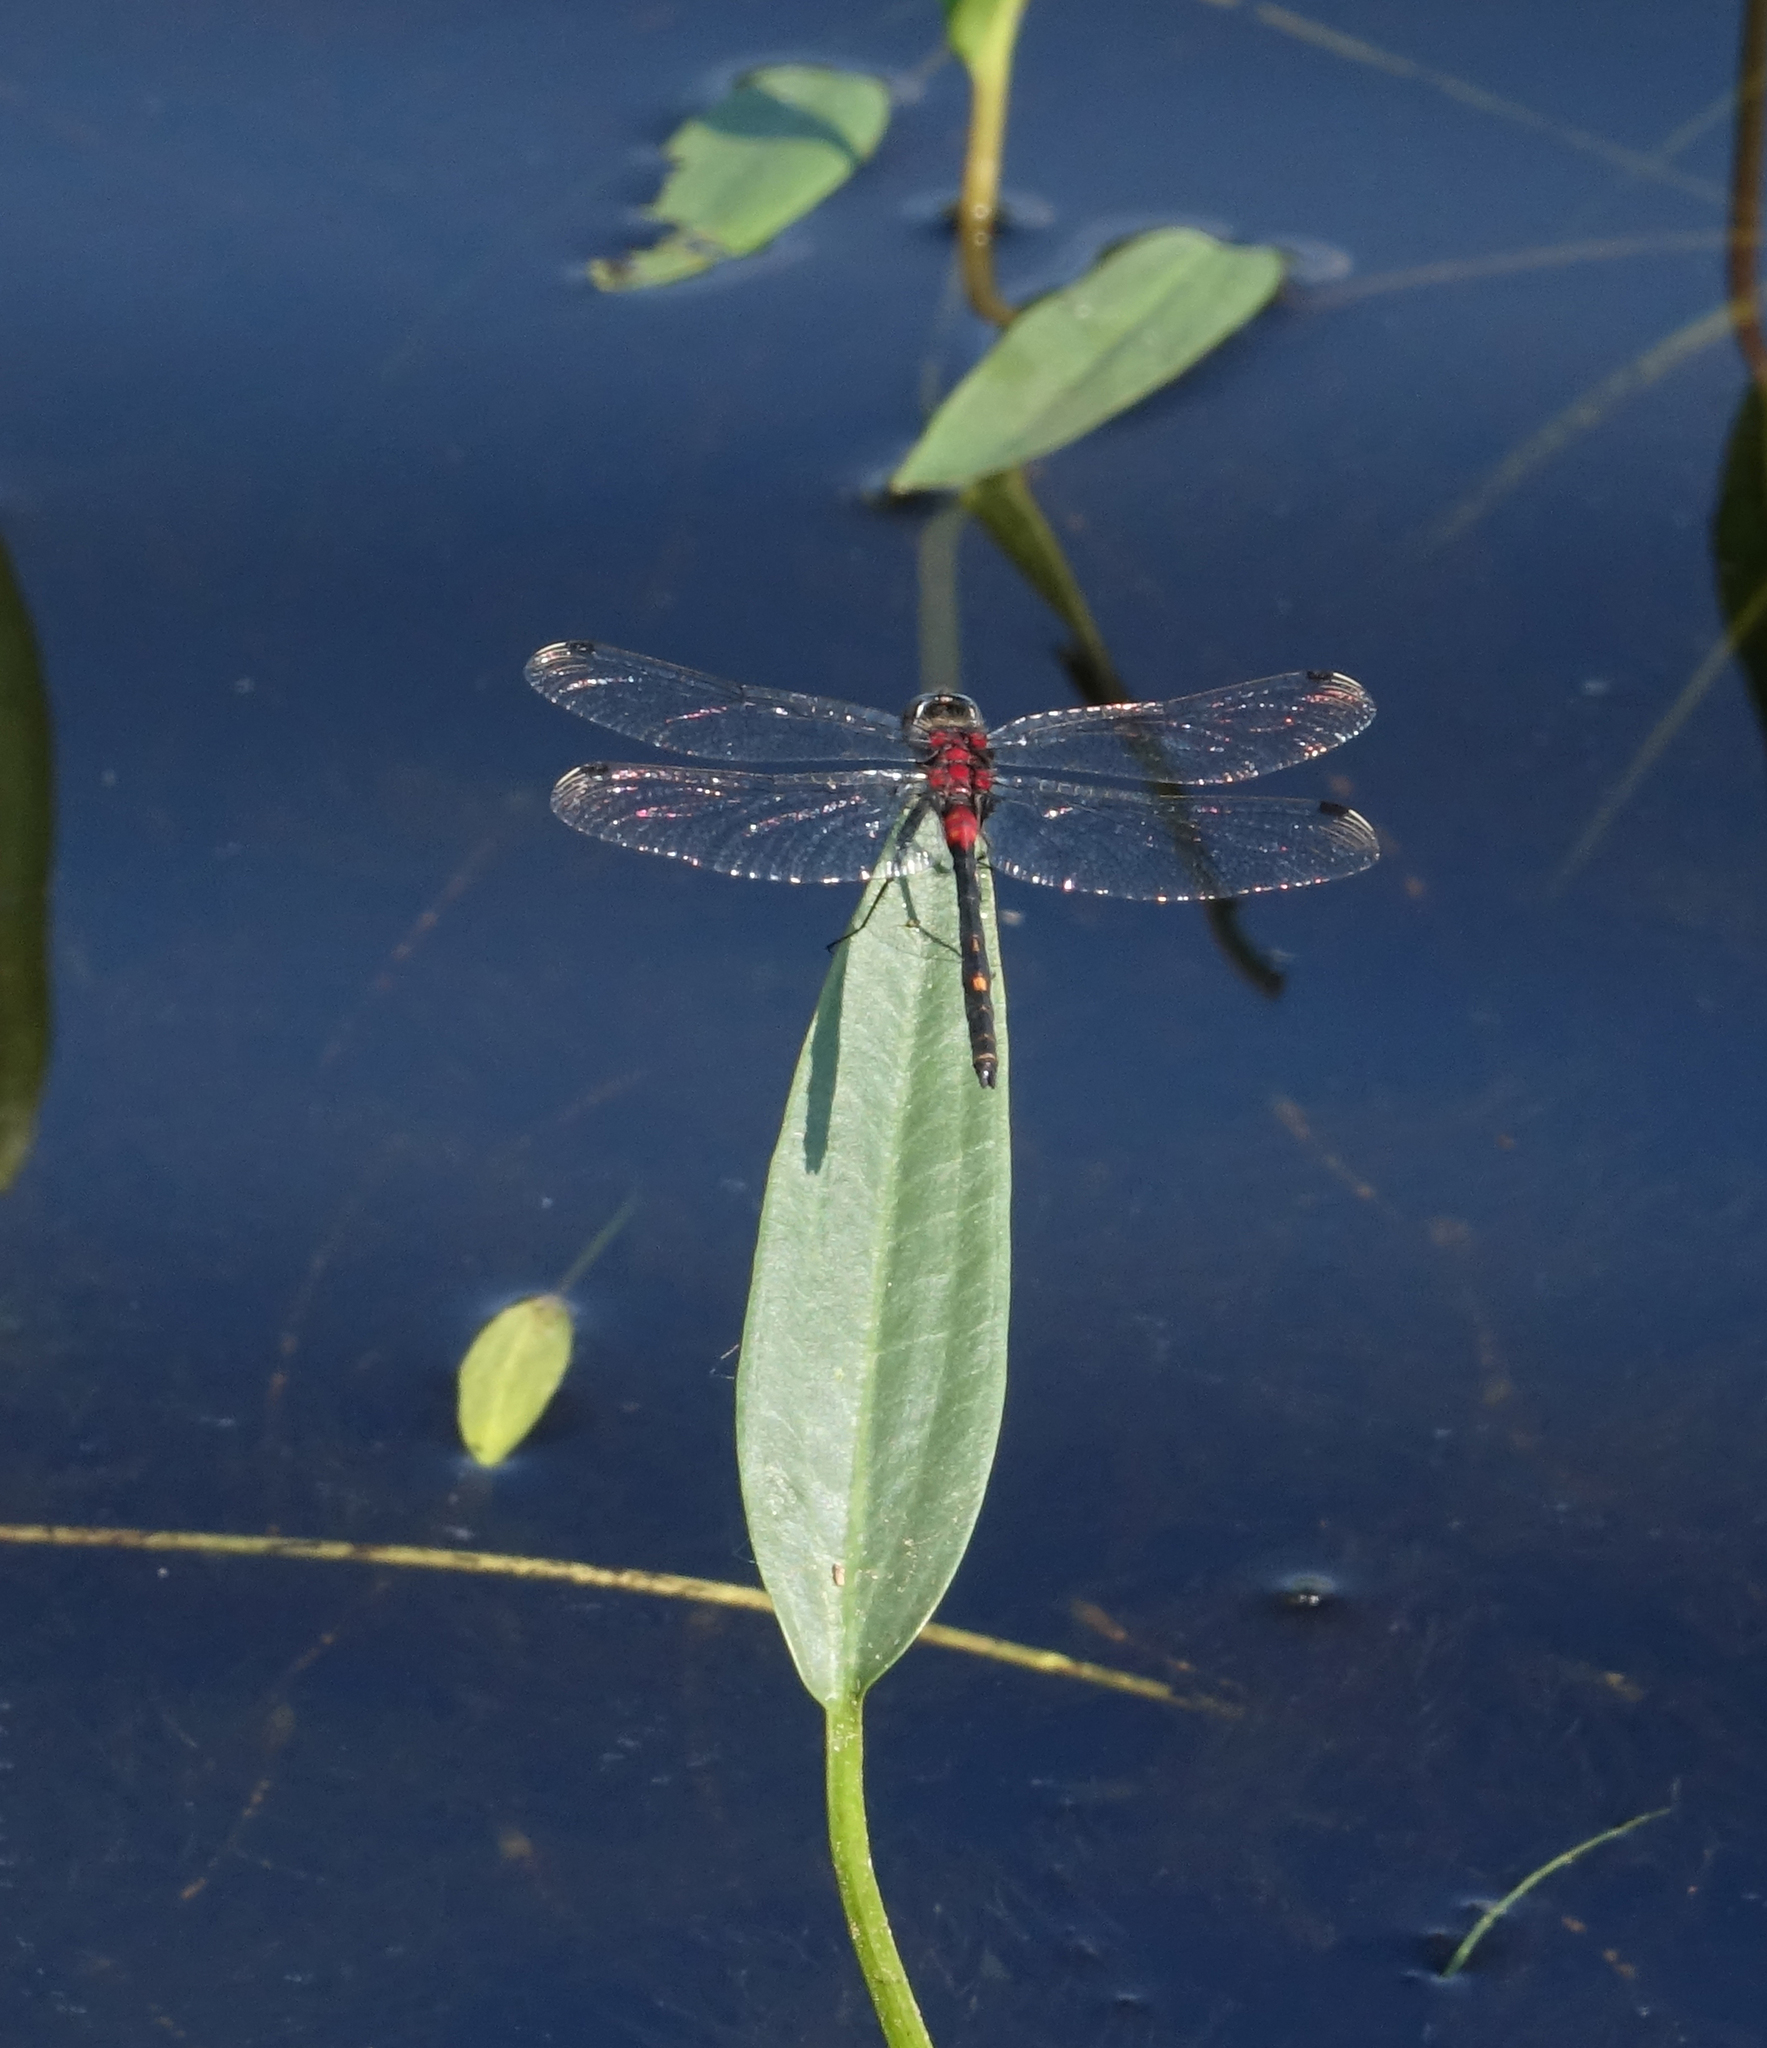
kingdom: Animalia
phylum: Arthropoda
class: Insecta
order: Odonata
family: Libellulidae
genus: Leucorrhinia
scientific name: Leucorrhinia orientalis
